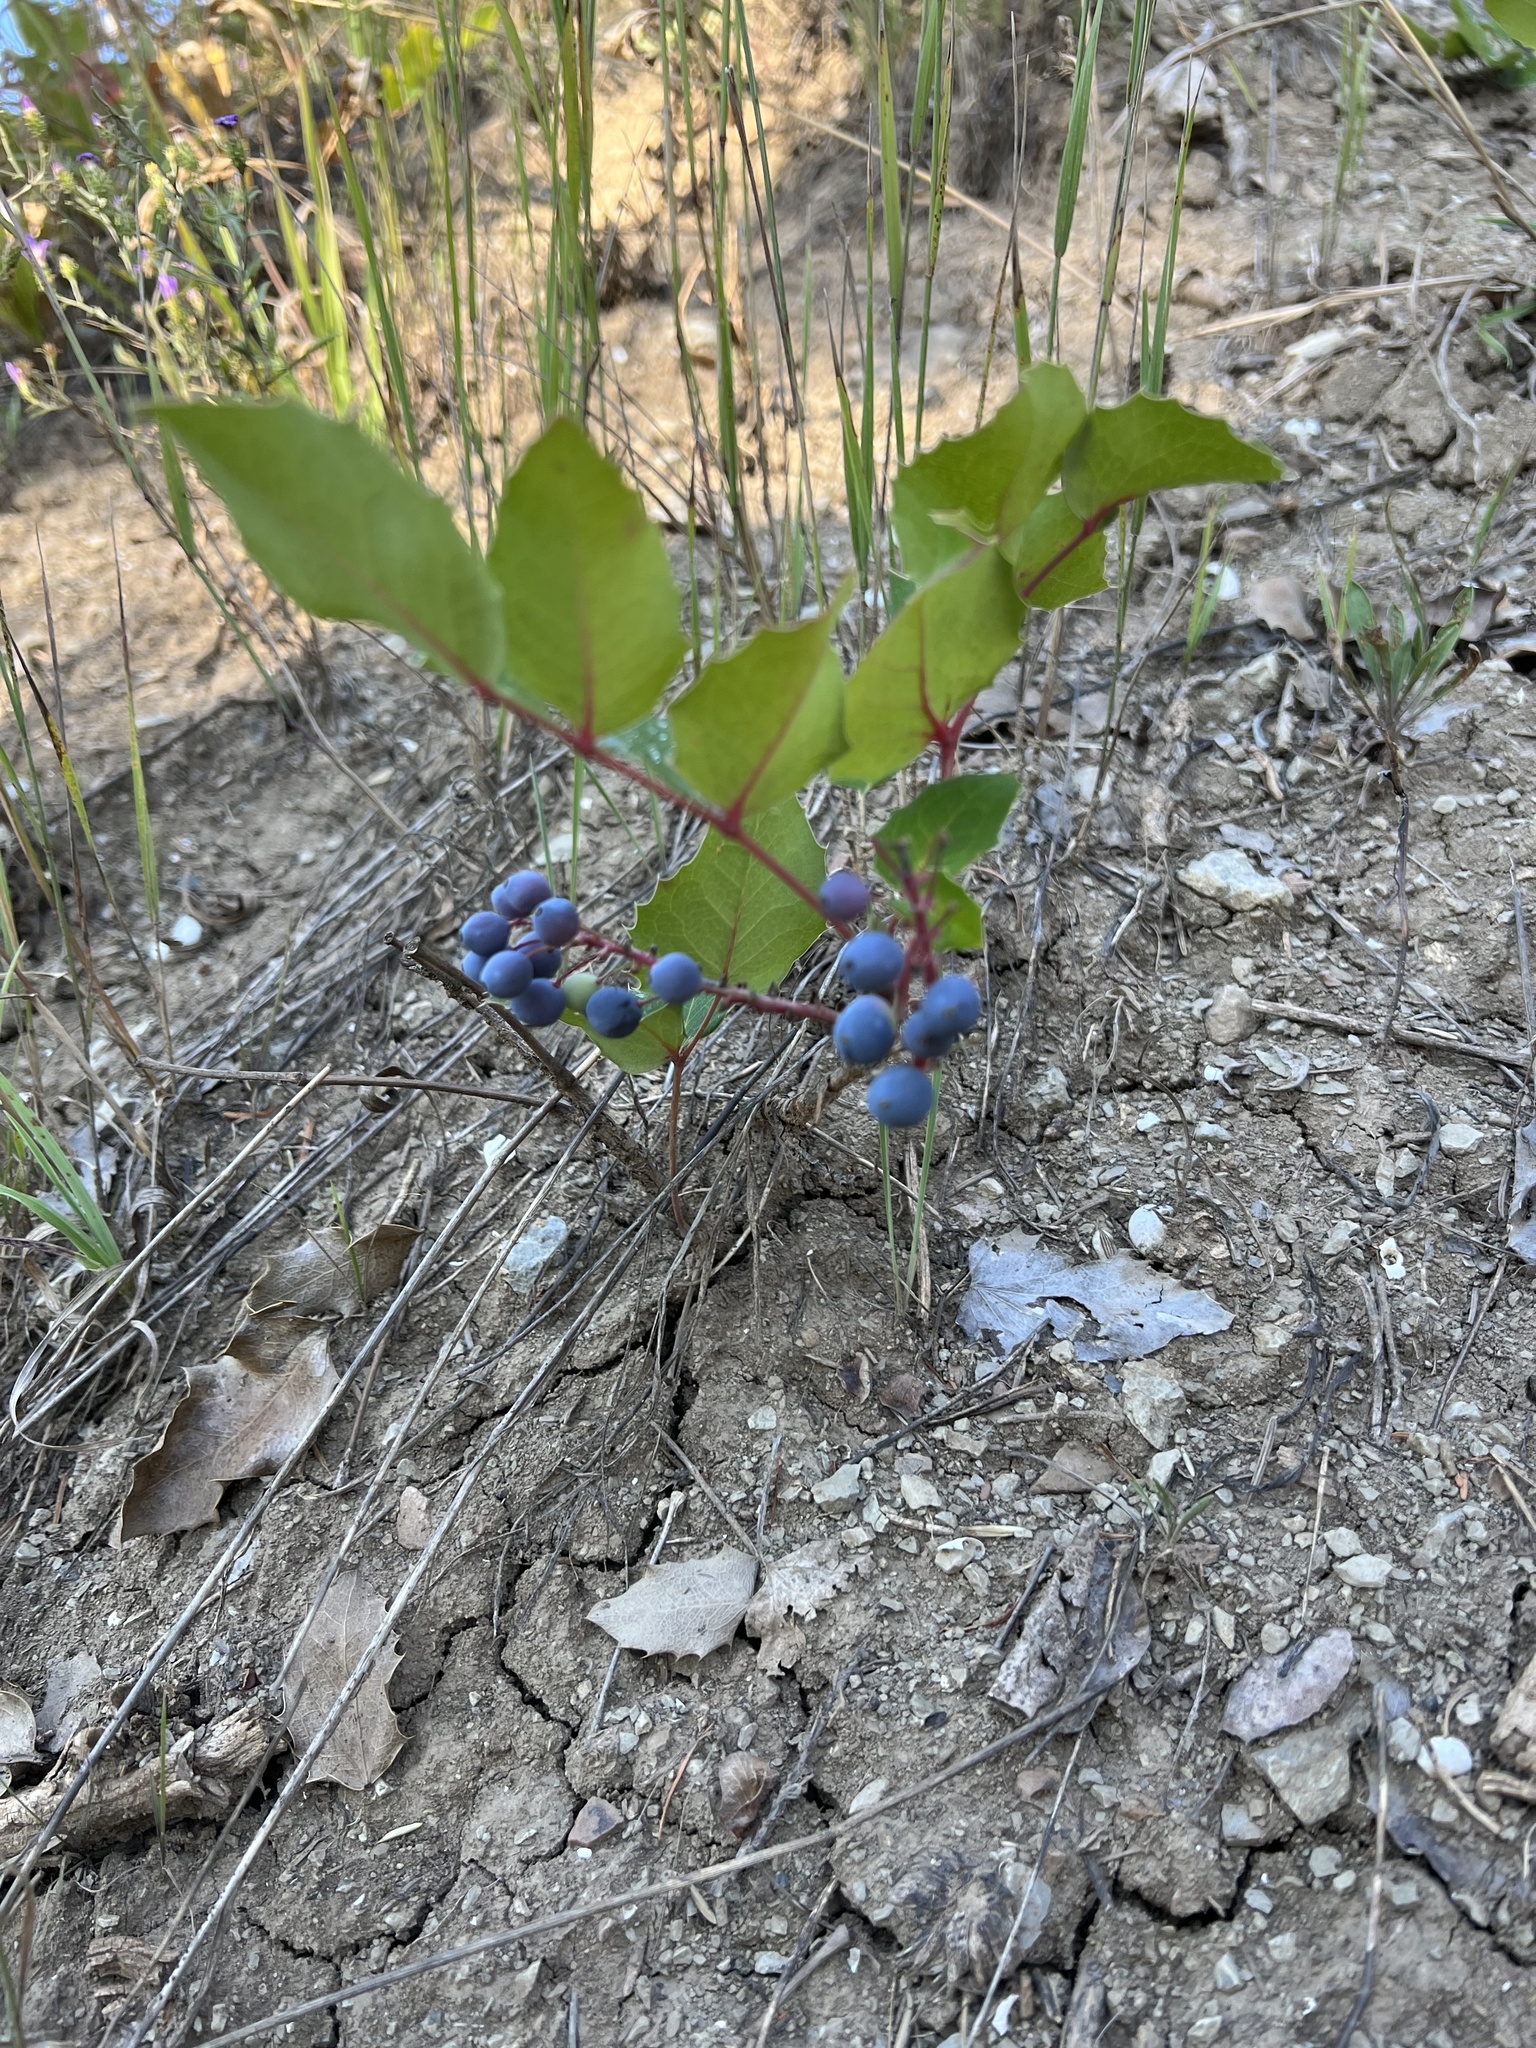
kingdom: Plantae
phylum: Tracheophyta
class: Magnoliopsida
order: Ranunculales
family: Berberidaceae
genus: Mahonia
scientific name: Mahonia repens
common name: Creeping oregon-grape
